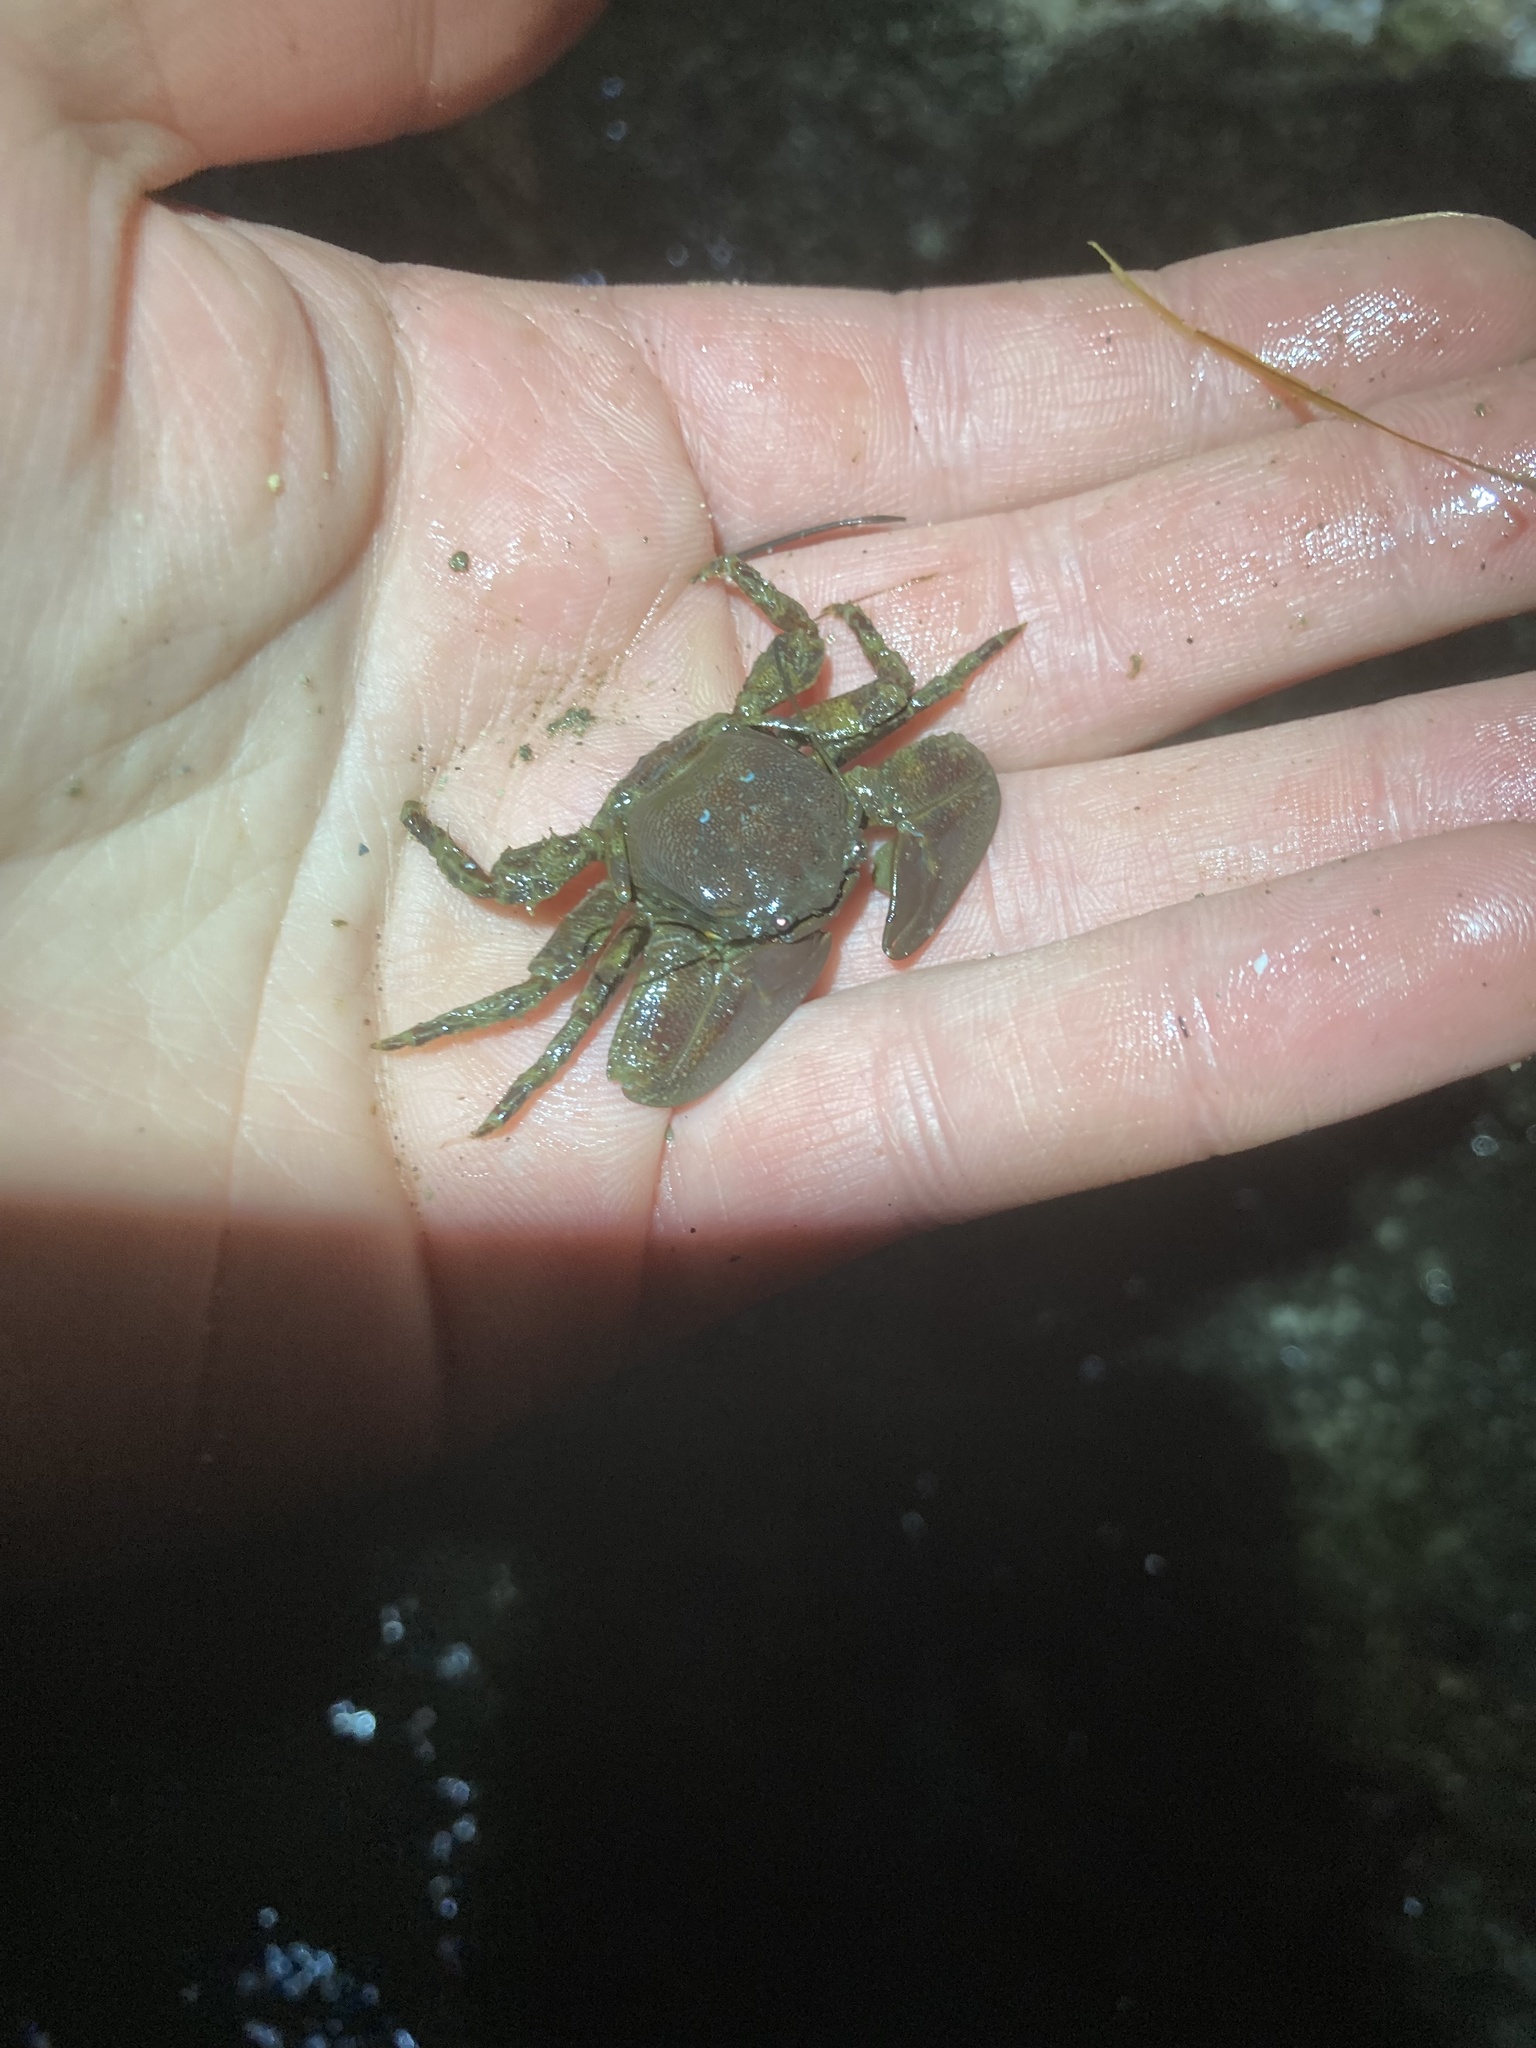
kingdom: Animalia
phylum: Arthropoda
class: Malacostraca
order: Decapoda
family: Porcellanidae
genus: Petrolisthes
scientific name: Petrolisthes eriomerus
